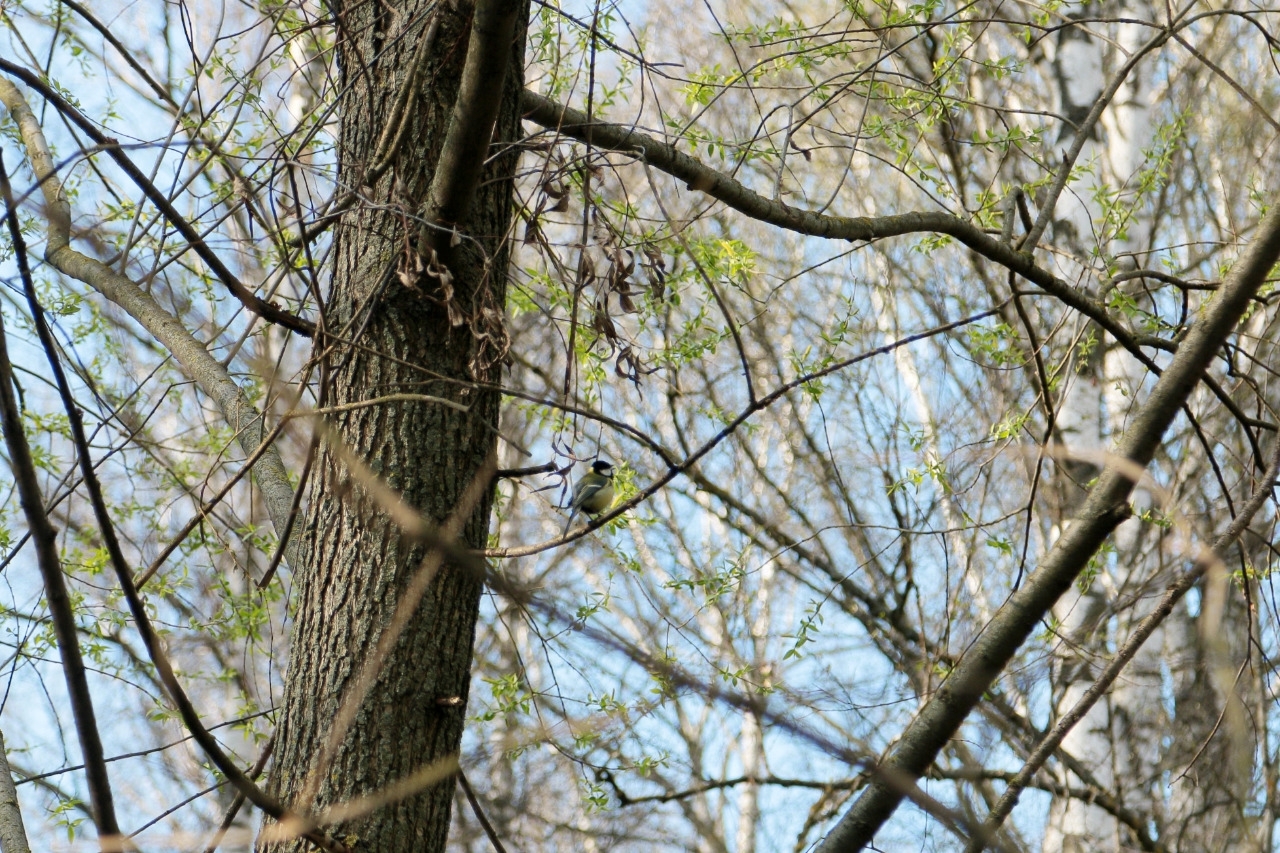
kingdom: Animalia
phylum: Chordata
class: Aves
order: Passeriformes
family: Paridae
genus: Parus
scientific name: Parus major
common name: Great tit
